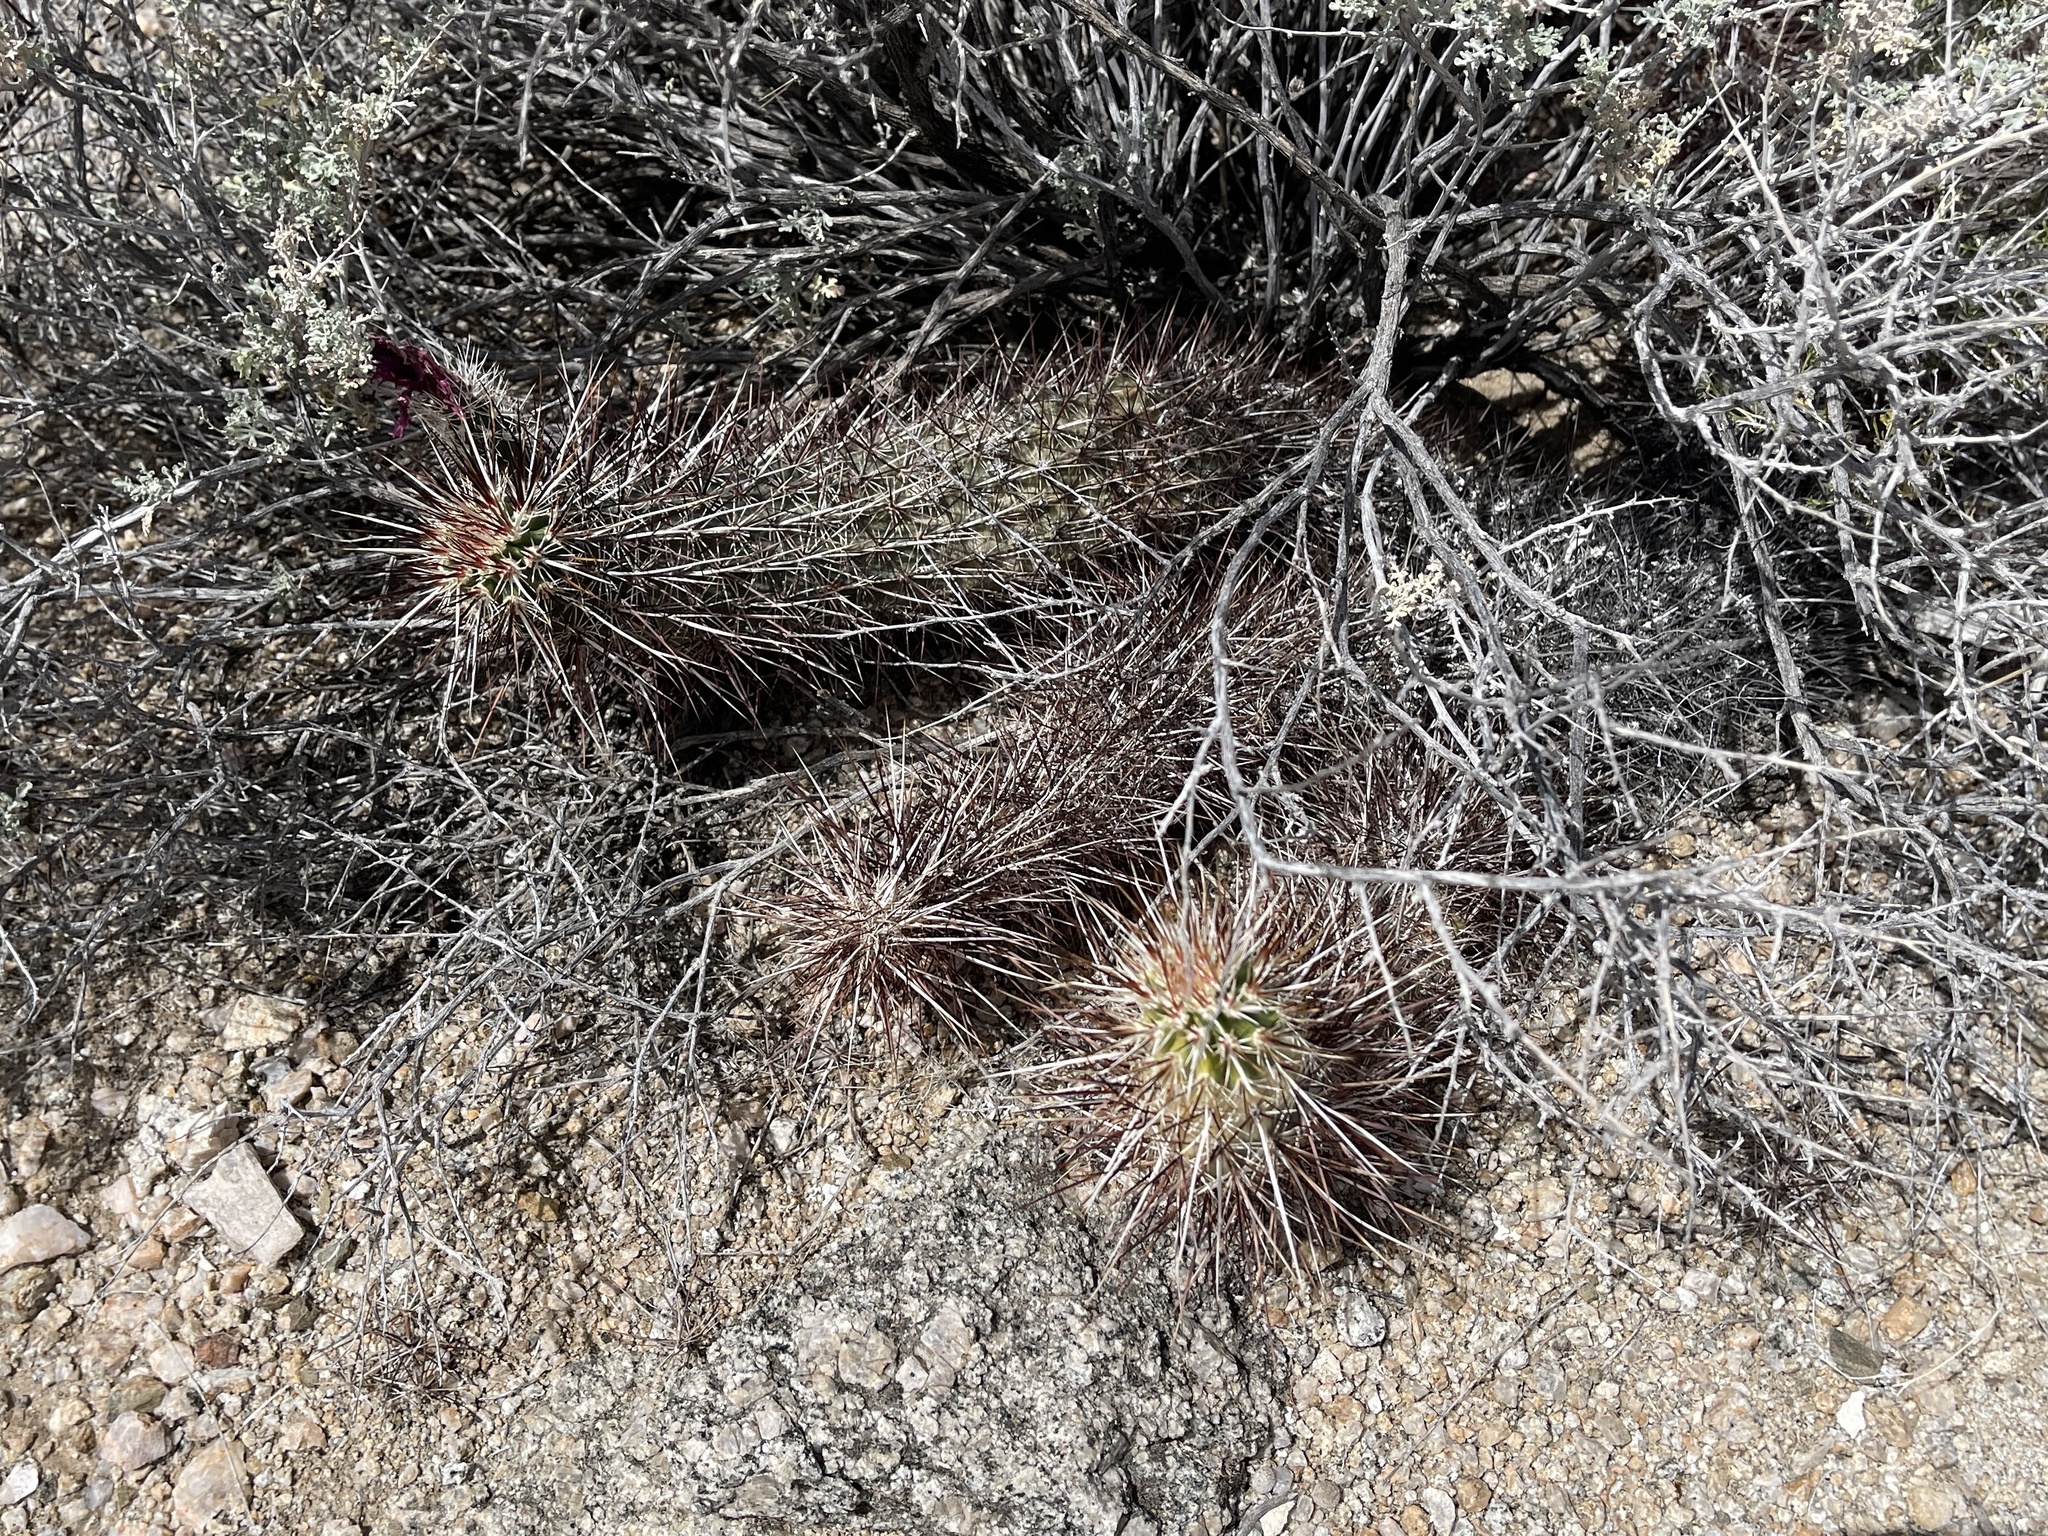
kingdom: Plantae
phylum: Tracheophyta
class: Magnoliopsida
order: Caryophyllales
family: Cactaceae
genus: Echinocereus
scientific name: Echinocereus engelmannii
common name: Engelmann's hedgehog cactus
